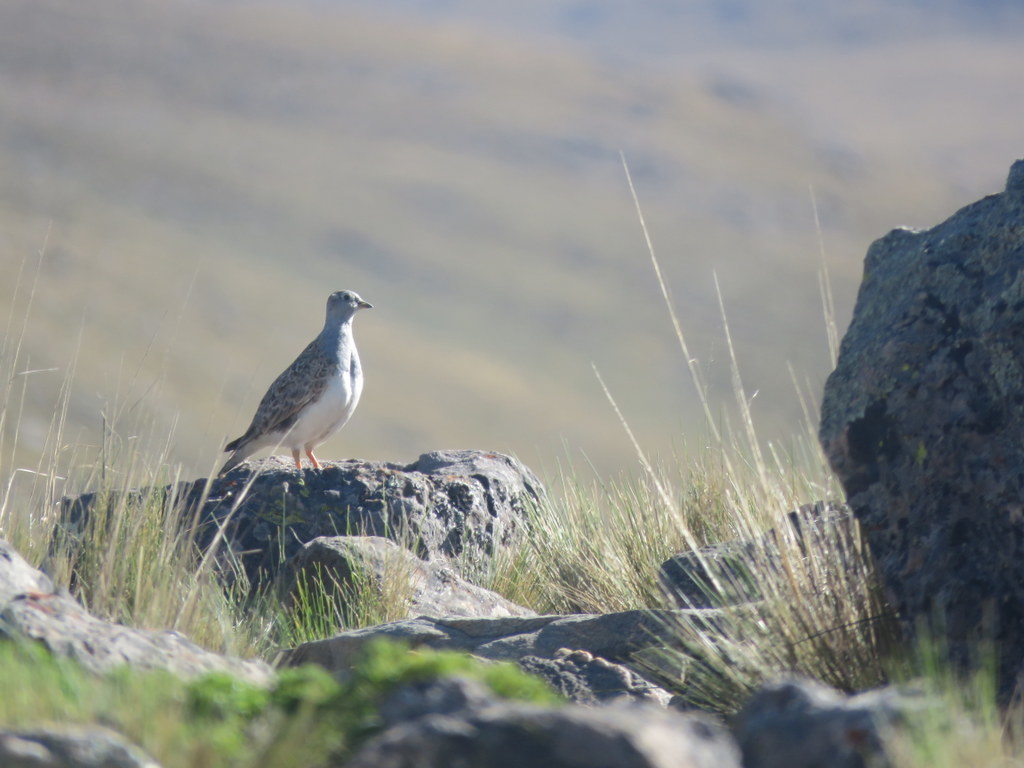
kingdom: Animalia
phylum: Chordata
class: Aves
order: Charadriiformes
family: Thinocoridae
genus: Thinocorus
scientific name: Thinocorus orbignyianus
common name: Grey-breasted seedsnipe
